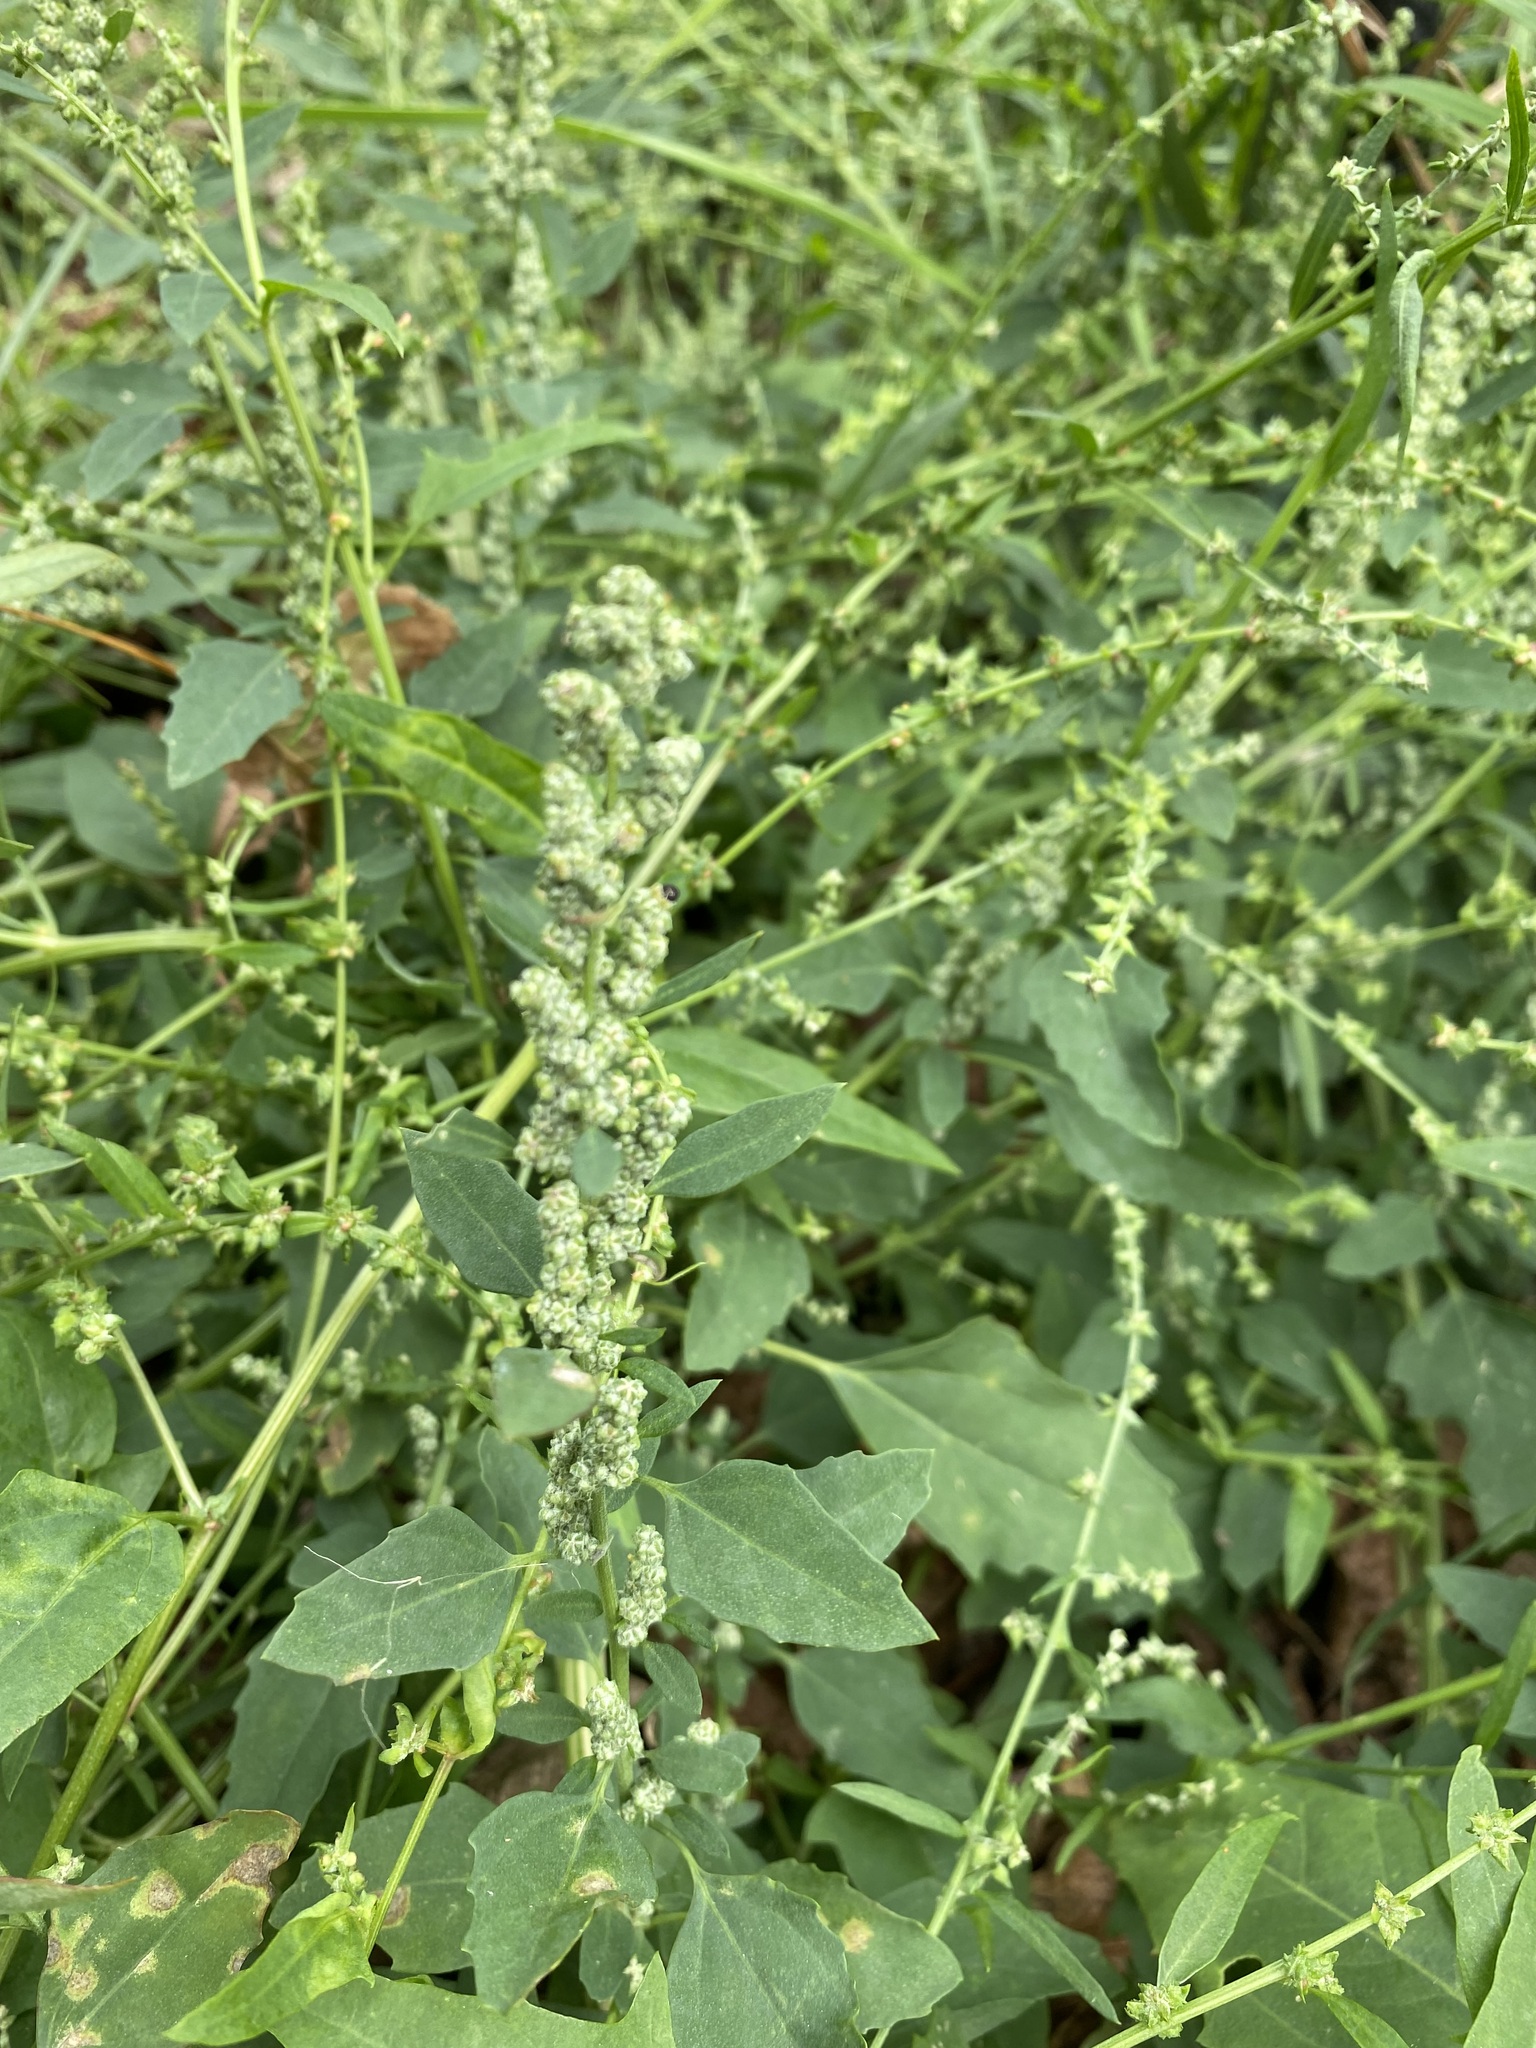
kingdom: Plantae
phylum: Tracheophyta
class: Magnoliopsida
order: Caryophyllales
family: Amaranthaceae
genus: Chenopodium
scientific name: Chenopodium album
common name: Fat-hen
